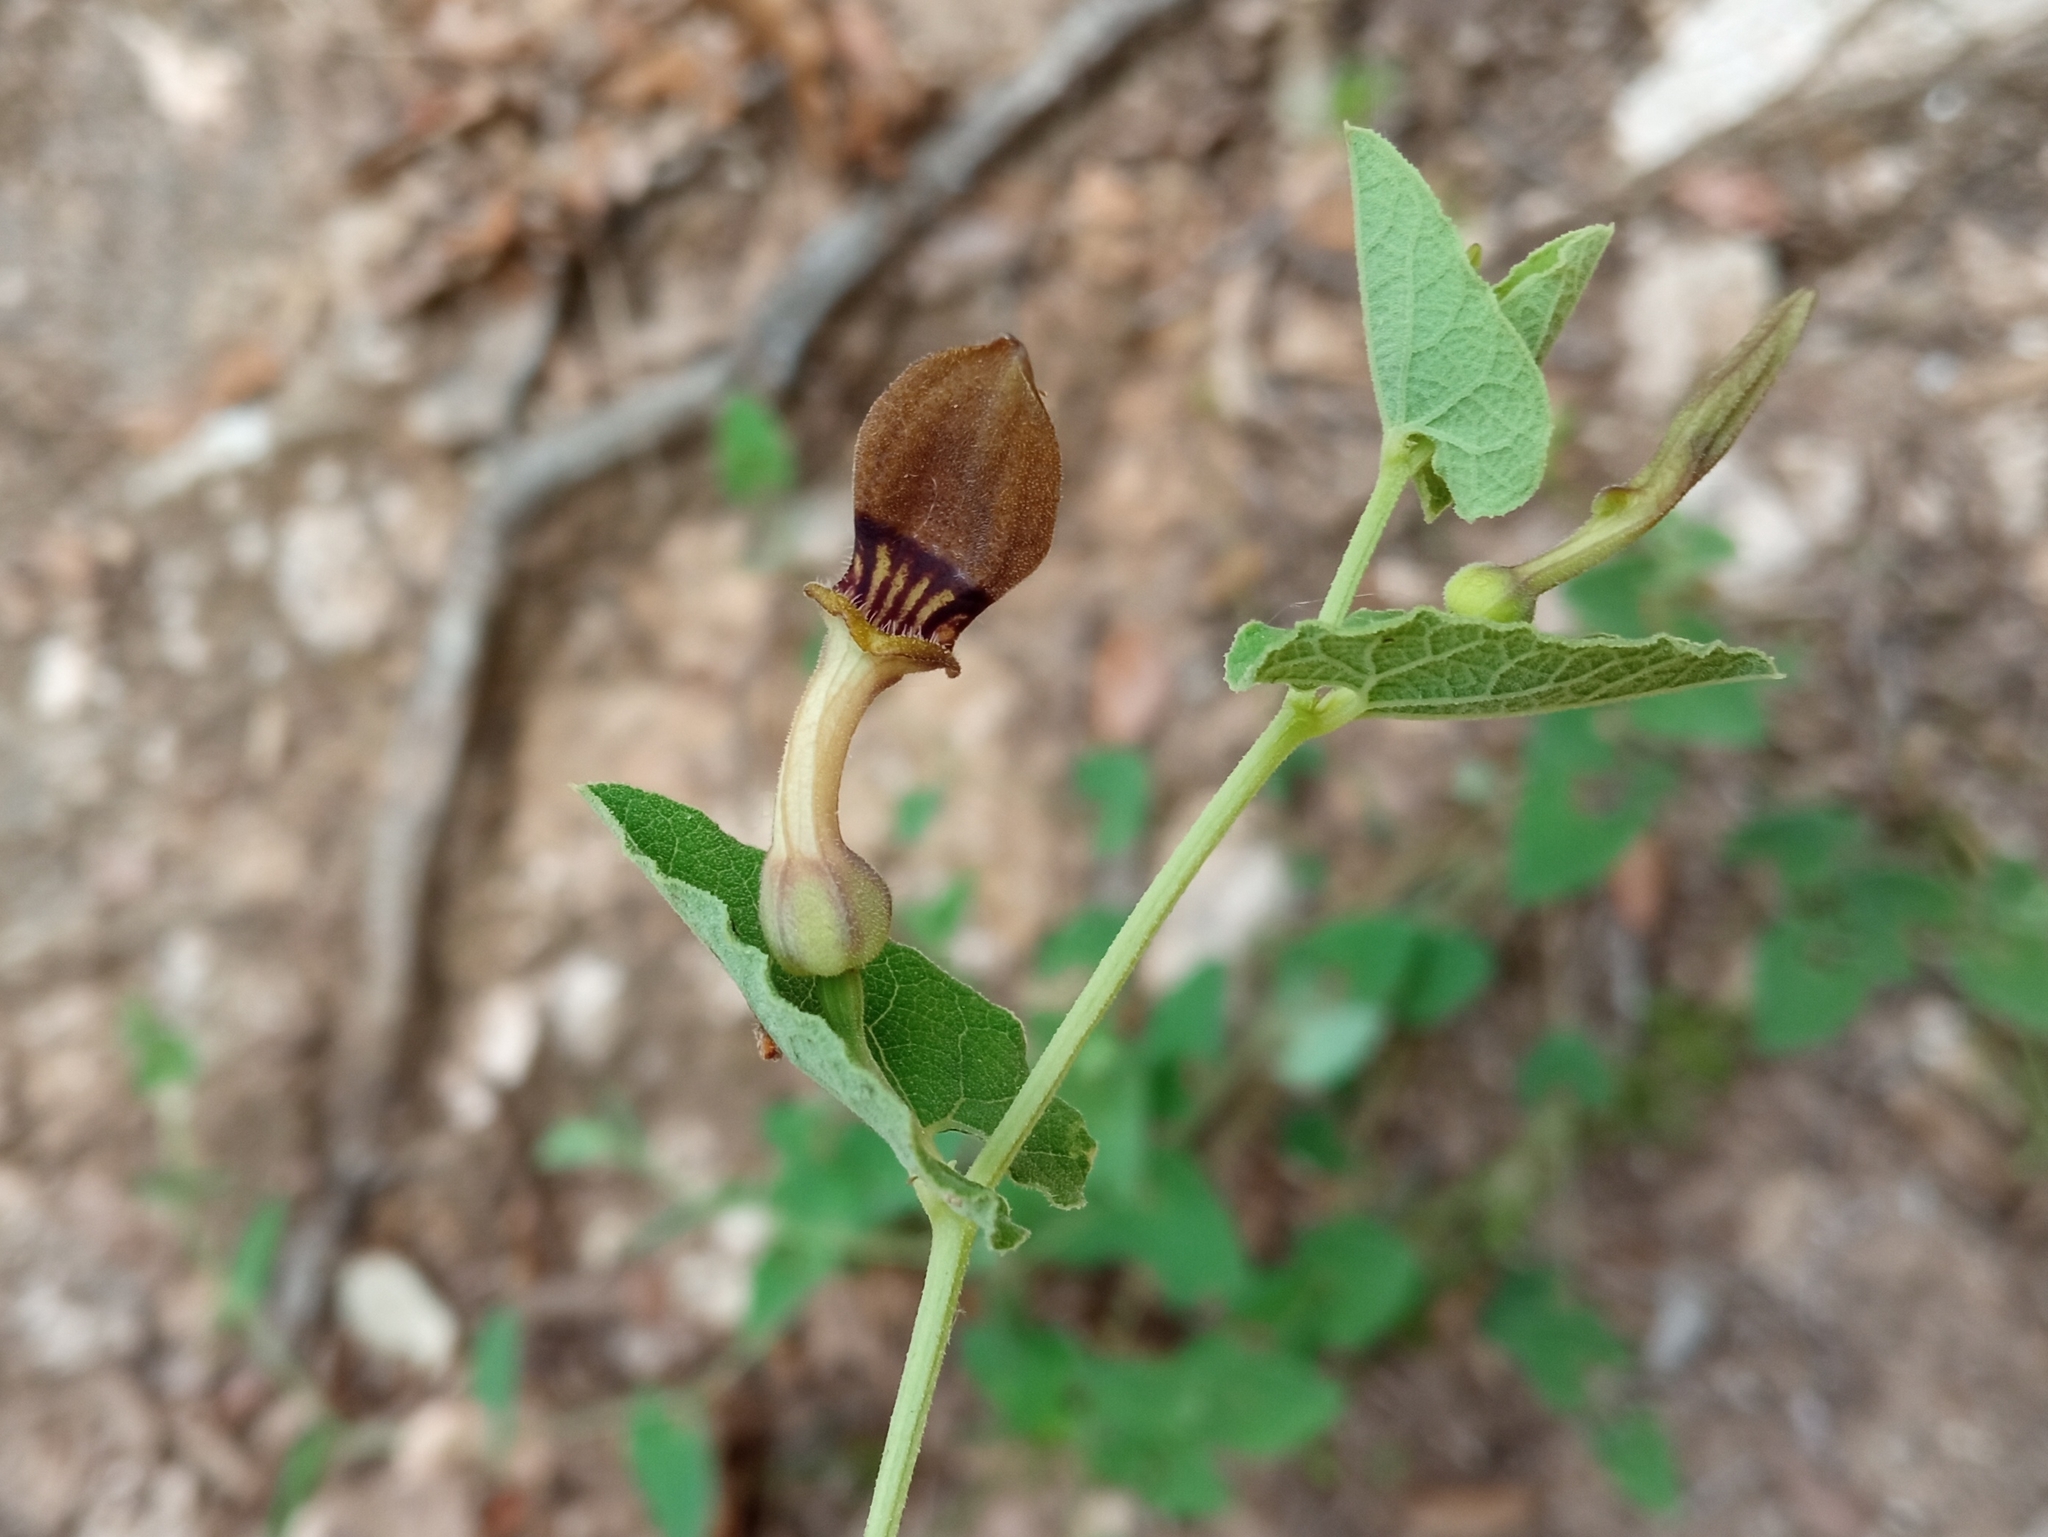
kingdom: Plantae
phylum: Tracheophyta
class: Magnoliopsida
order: Piperales
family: Aristolochiaceae
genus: Aristolochia
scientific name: Aristolochia pistolochia
